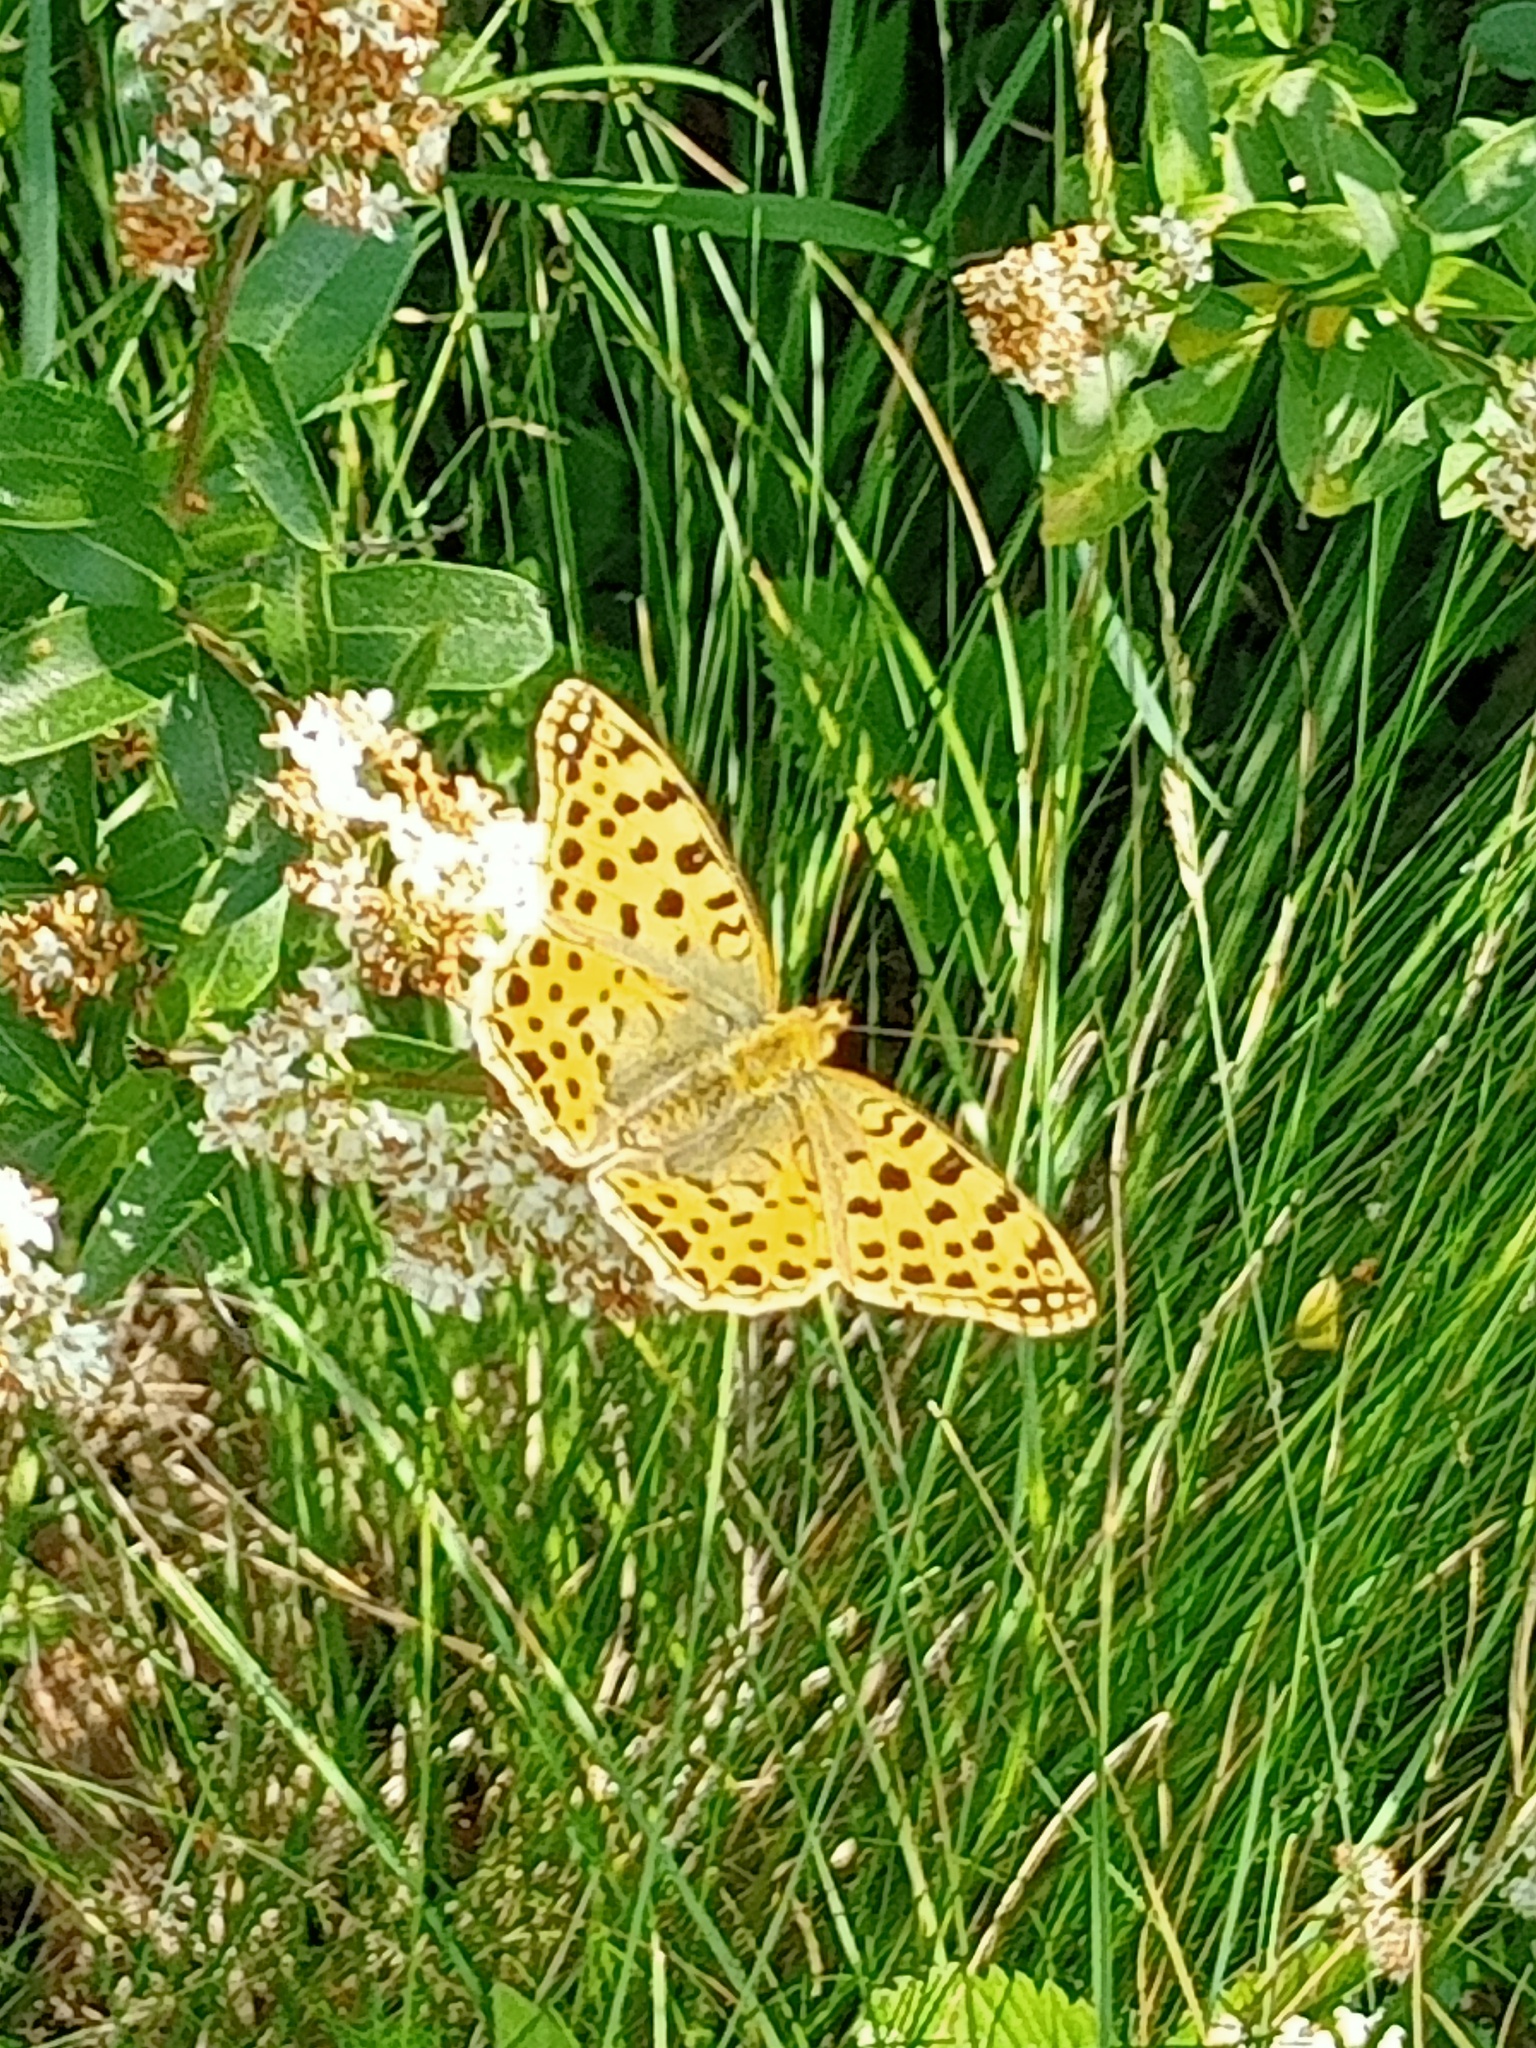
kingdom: Animalia
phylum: Arthropoda
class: Insecta
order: Lepidoptera
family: Nymphalidae
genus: Issoria
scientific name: Issoria lathonia
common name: Queen of spain fritillary
